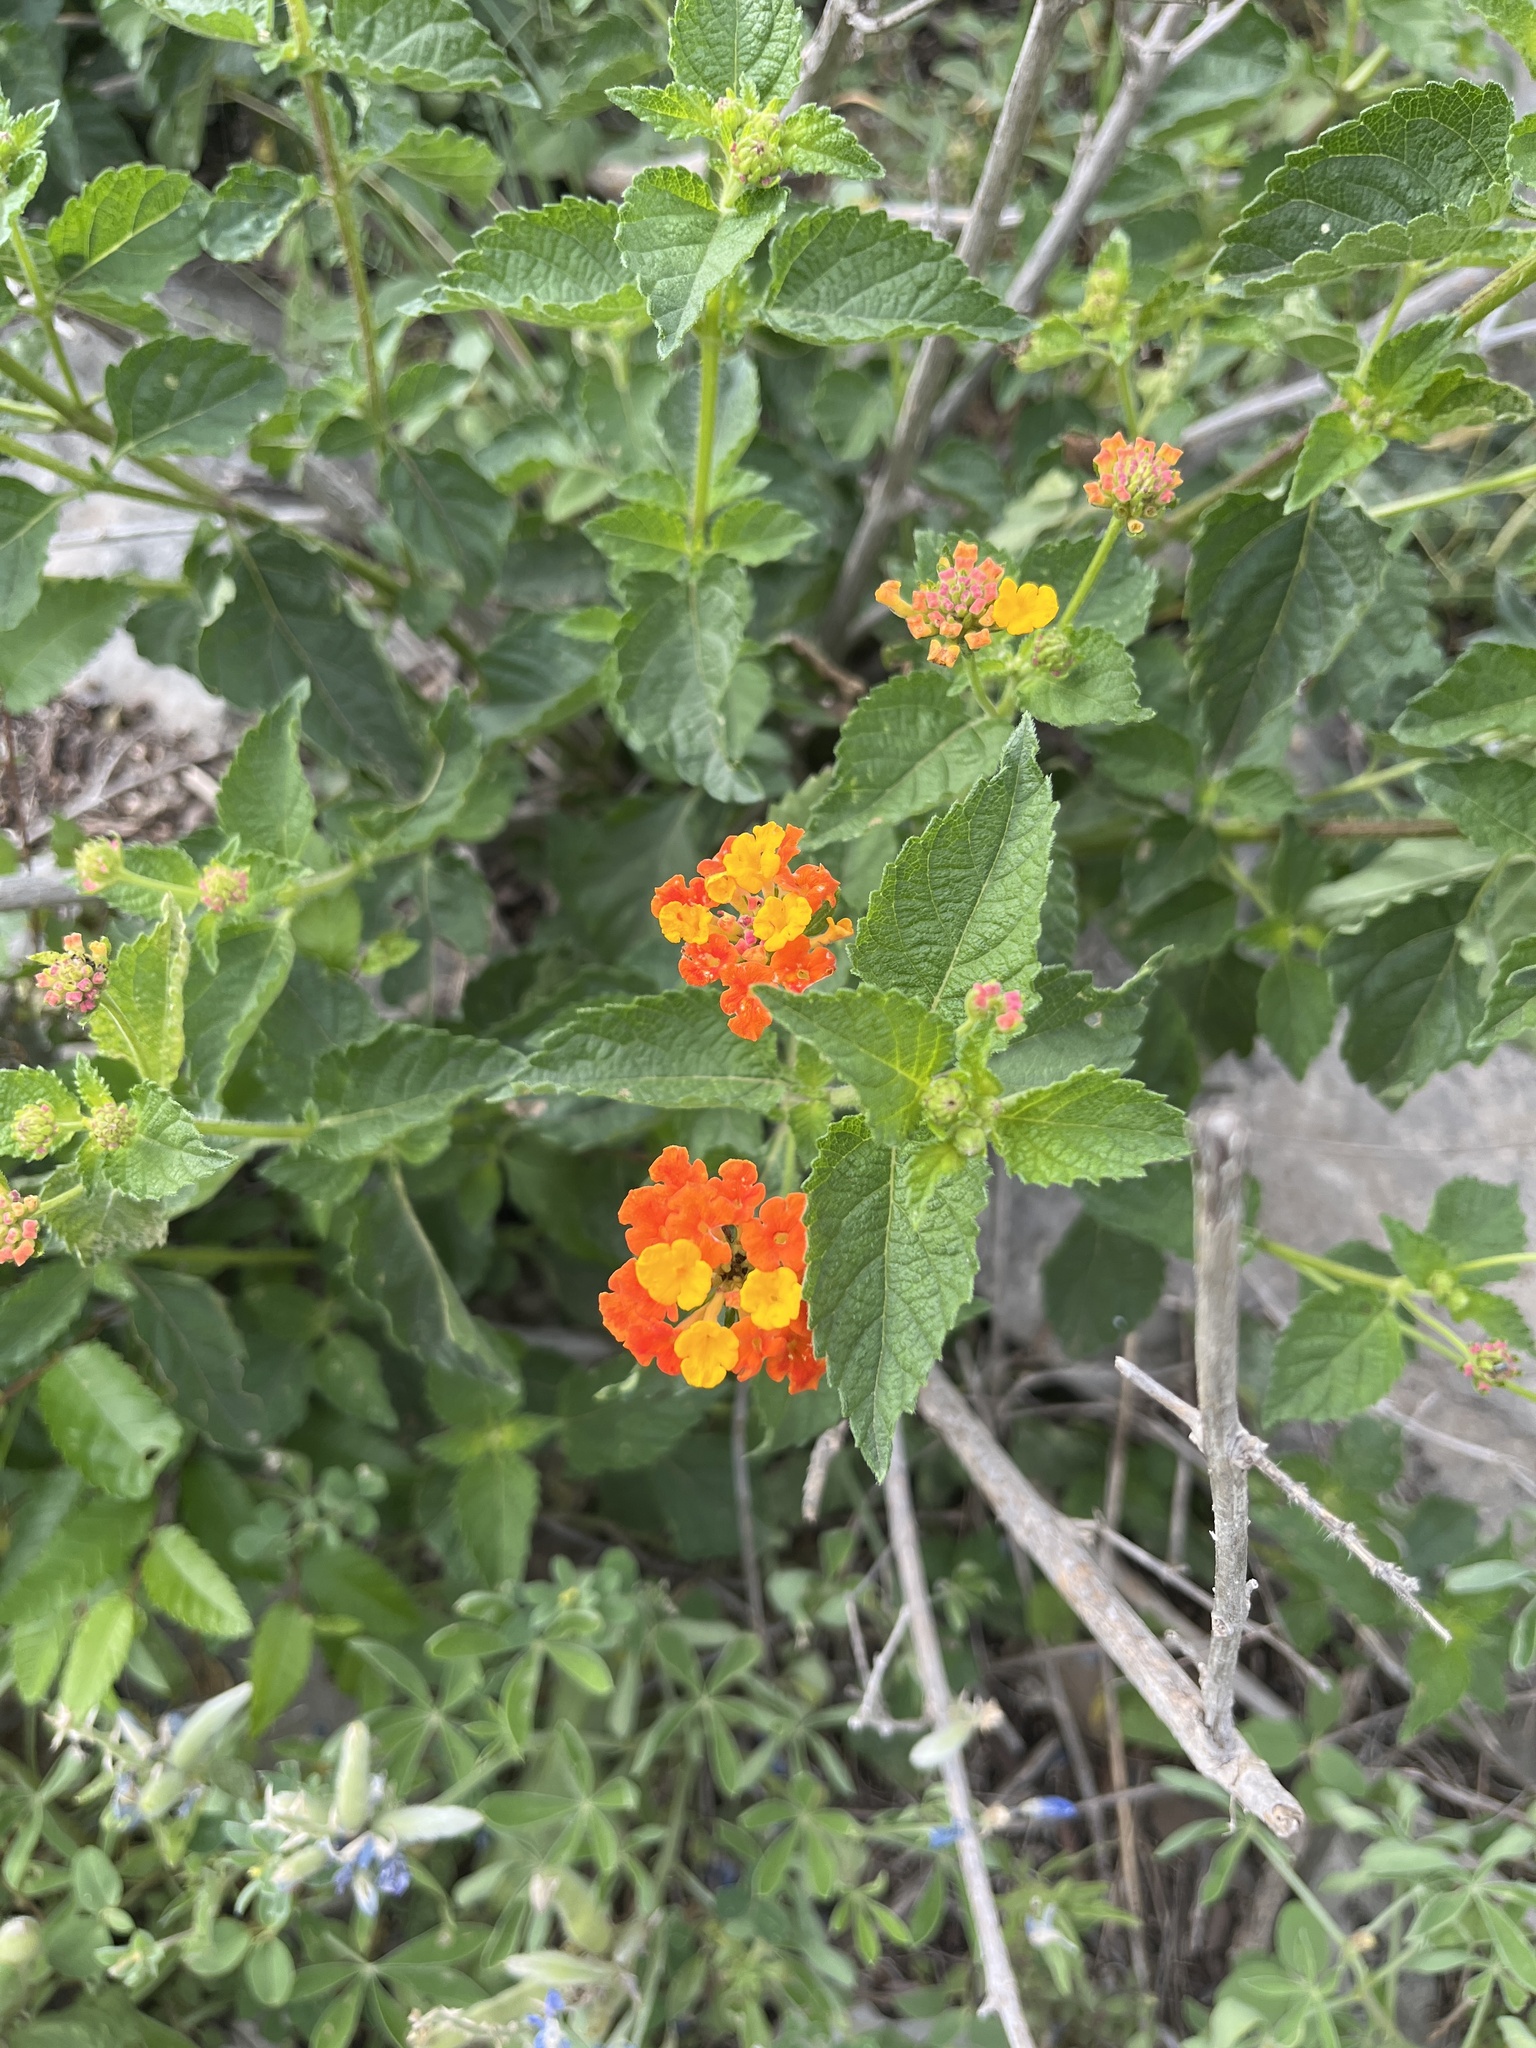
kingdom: Plantae
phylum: Tracheophyta
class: Magnoliopsida
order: Lamiales
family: Verbenaceae
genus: Lantana
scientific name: Lantana urticoides
